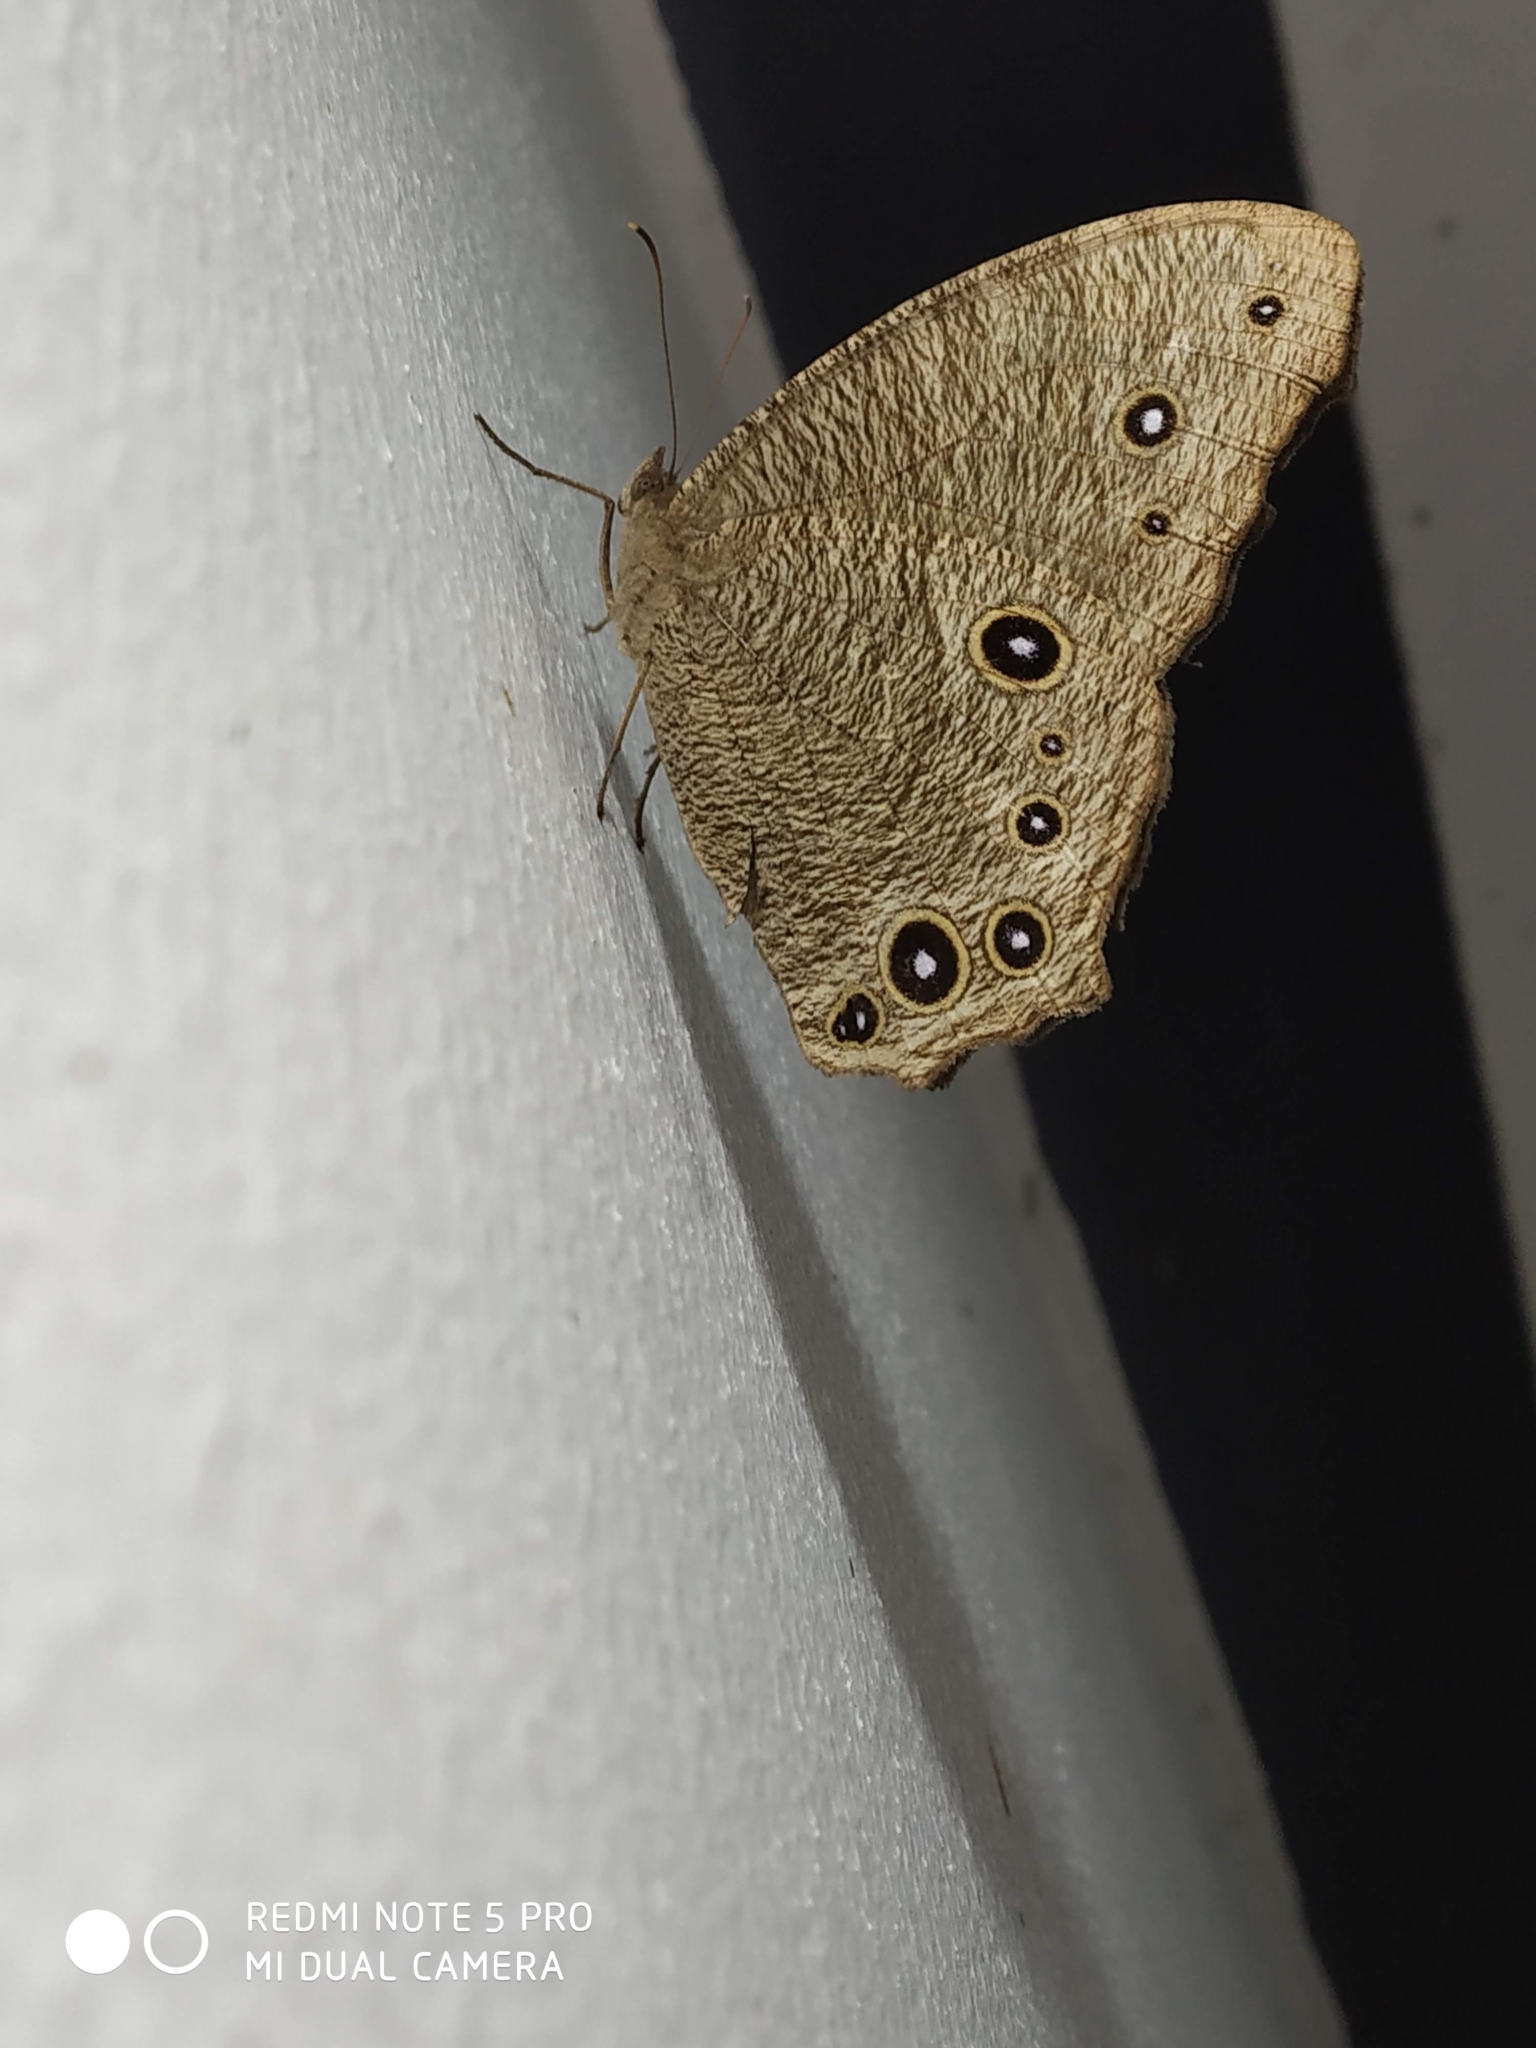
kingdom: Animalia
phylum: Arthropoda
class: Insecta
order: Lepidoptera
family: Nymphalidae
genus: Melanitis
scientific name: Melanitis leda
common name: Twilight brown
